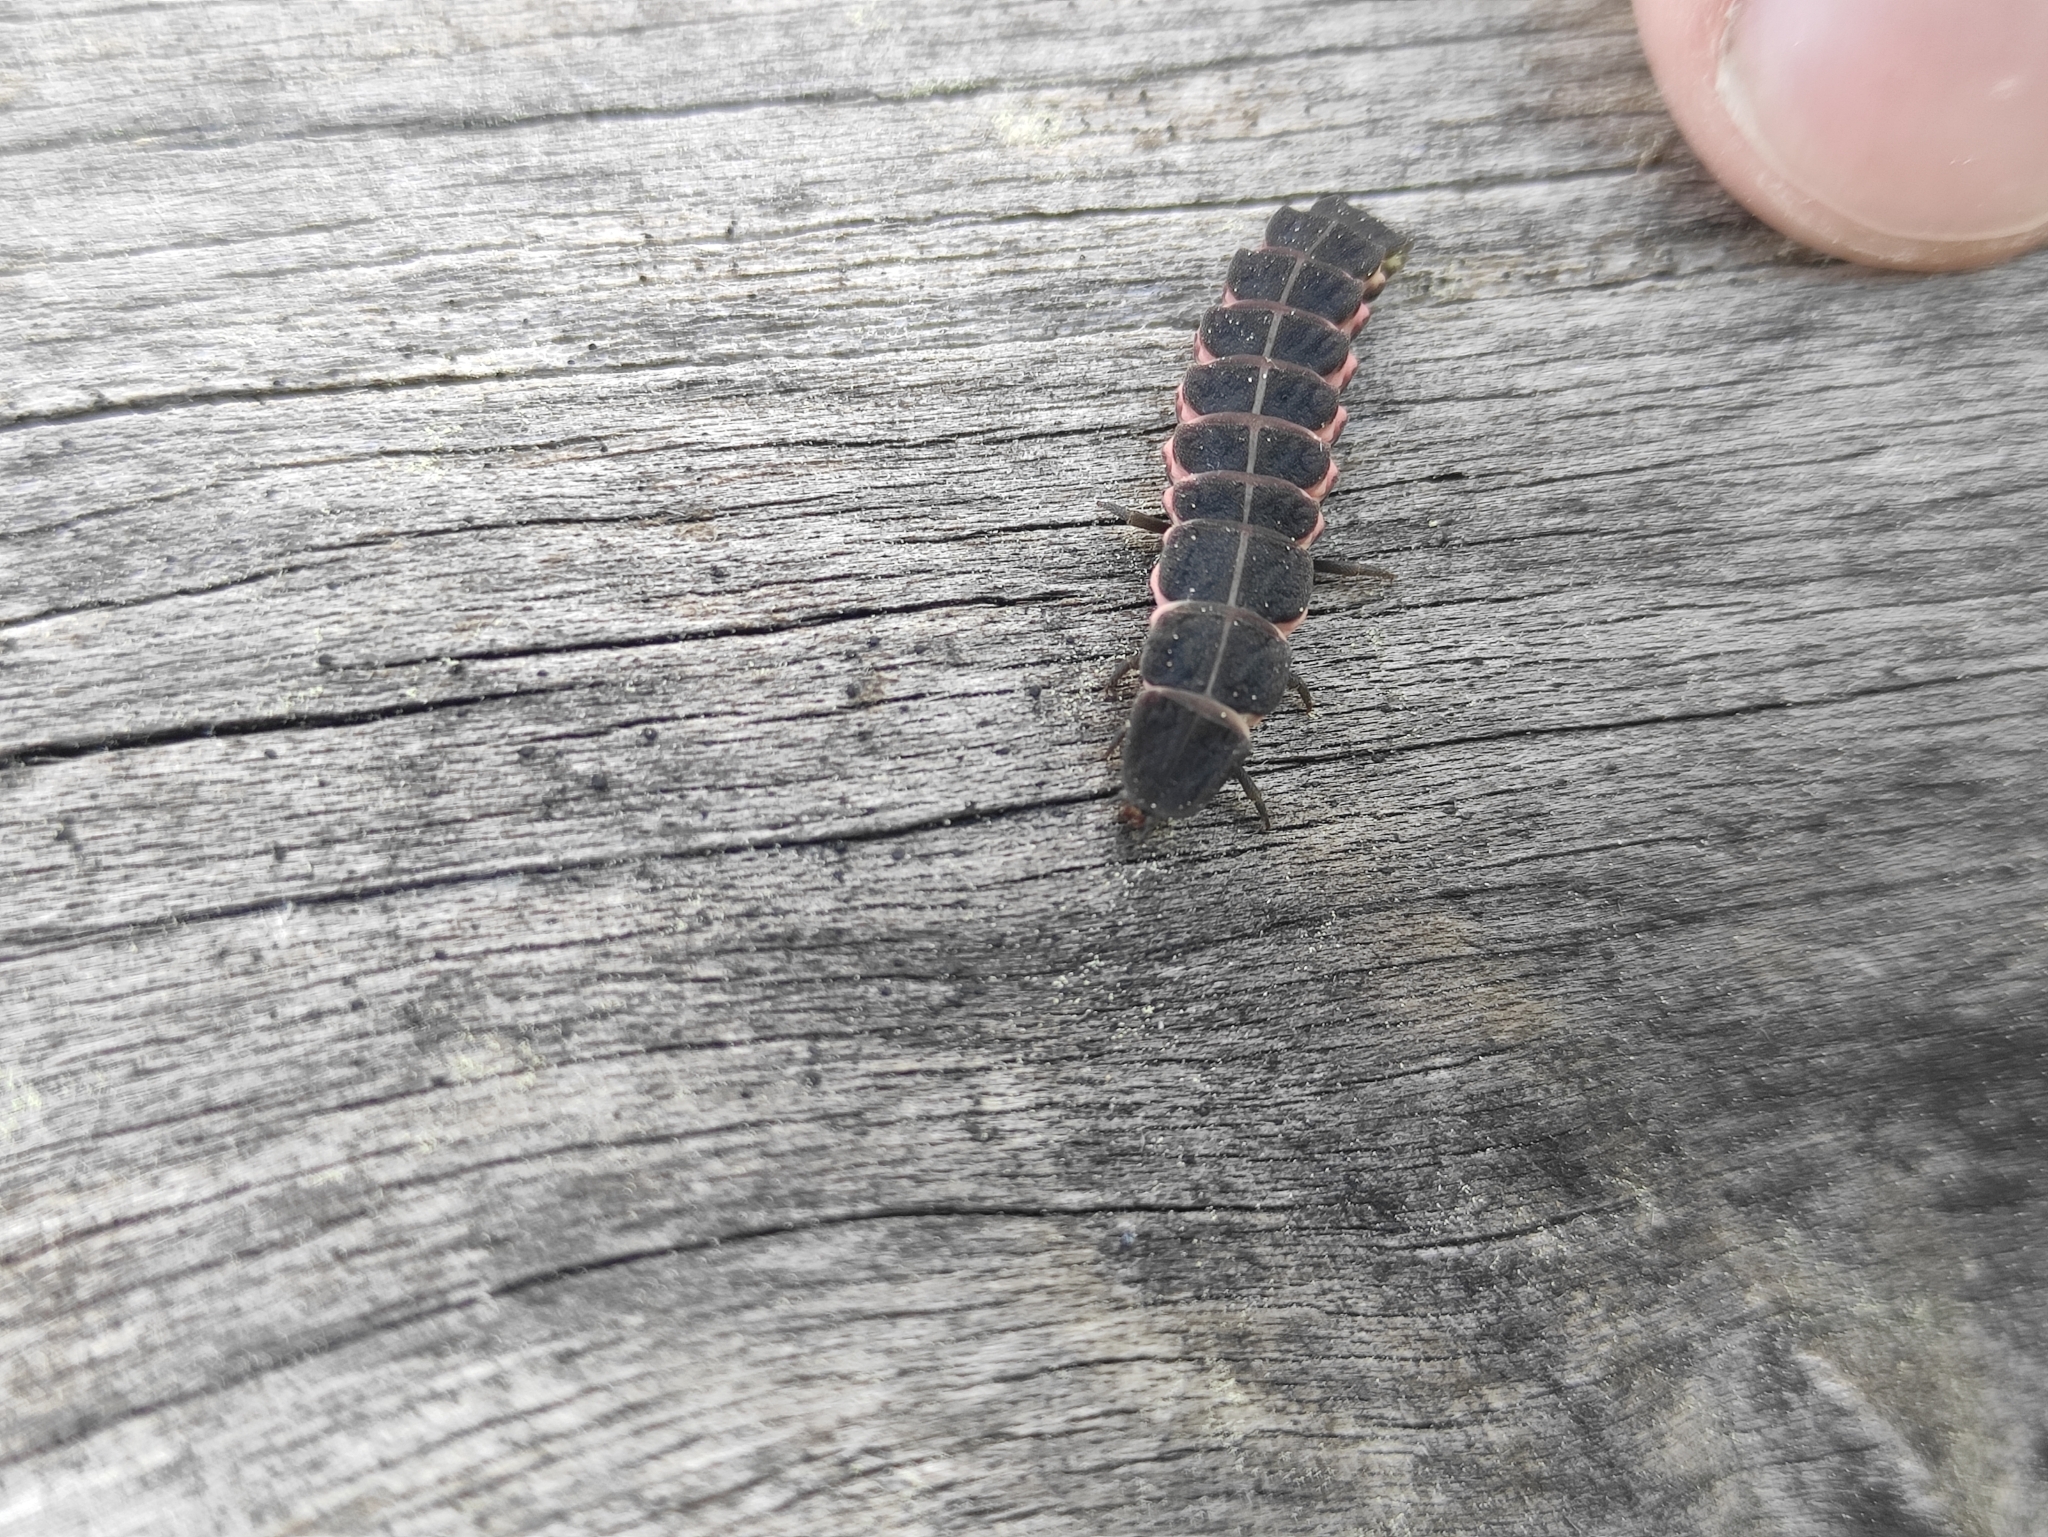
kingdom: Animalia
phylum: Arthropoda
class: Insecta
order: Coleoptera
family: Lampyridae
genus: Nyctophila
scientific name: Nyctophila reichii
